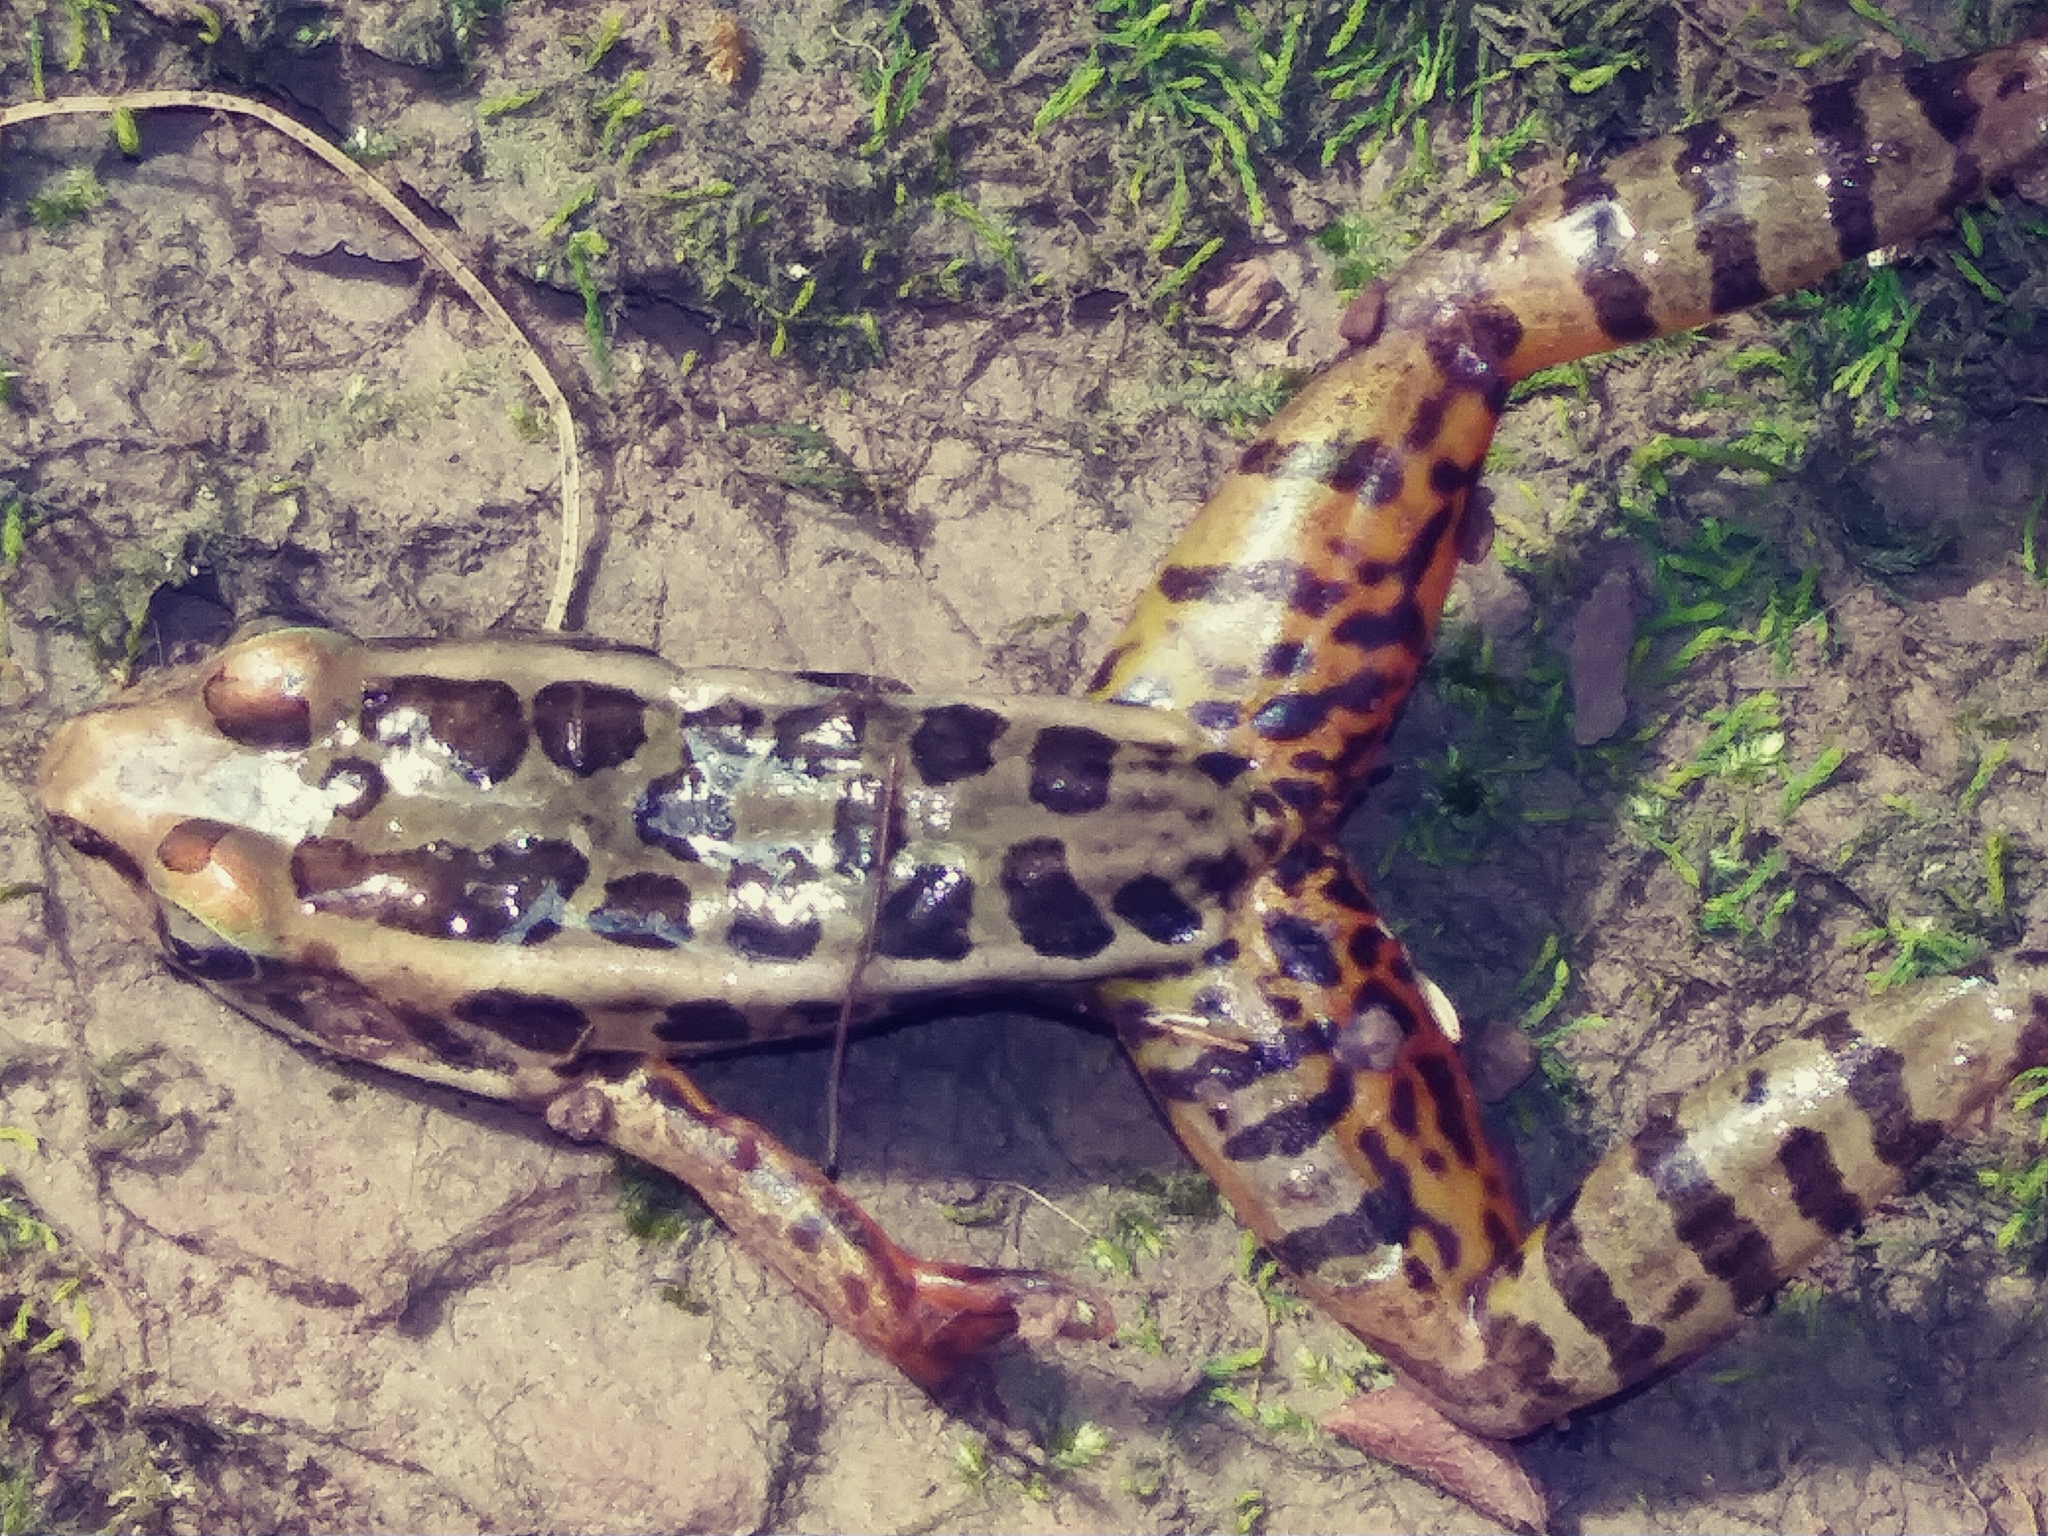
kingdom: Animalia
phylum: Chordata
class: Amphibia
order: Anura
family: Ranidae
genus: Lithobates
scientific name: Lithobates palustris
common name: Pickerel frog
